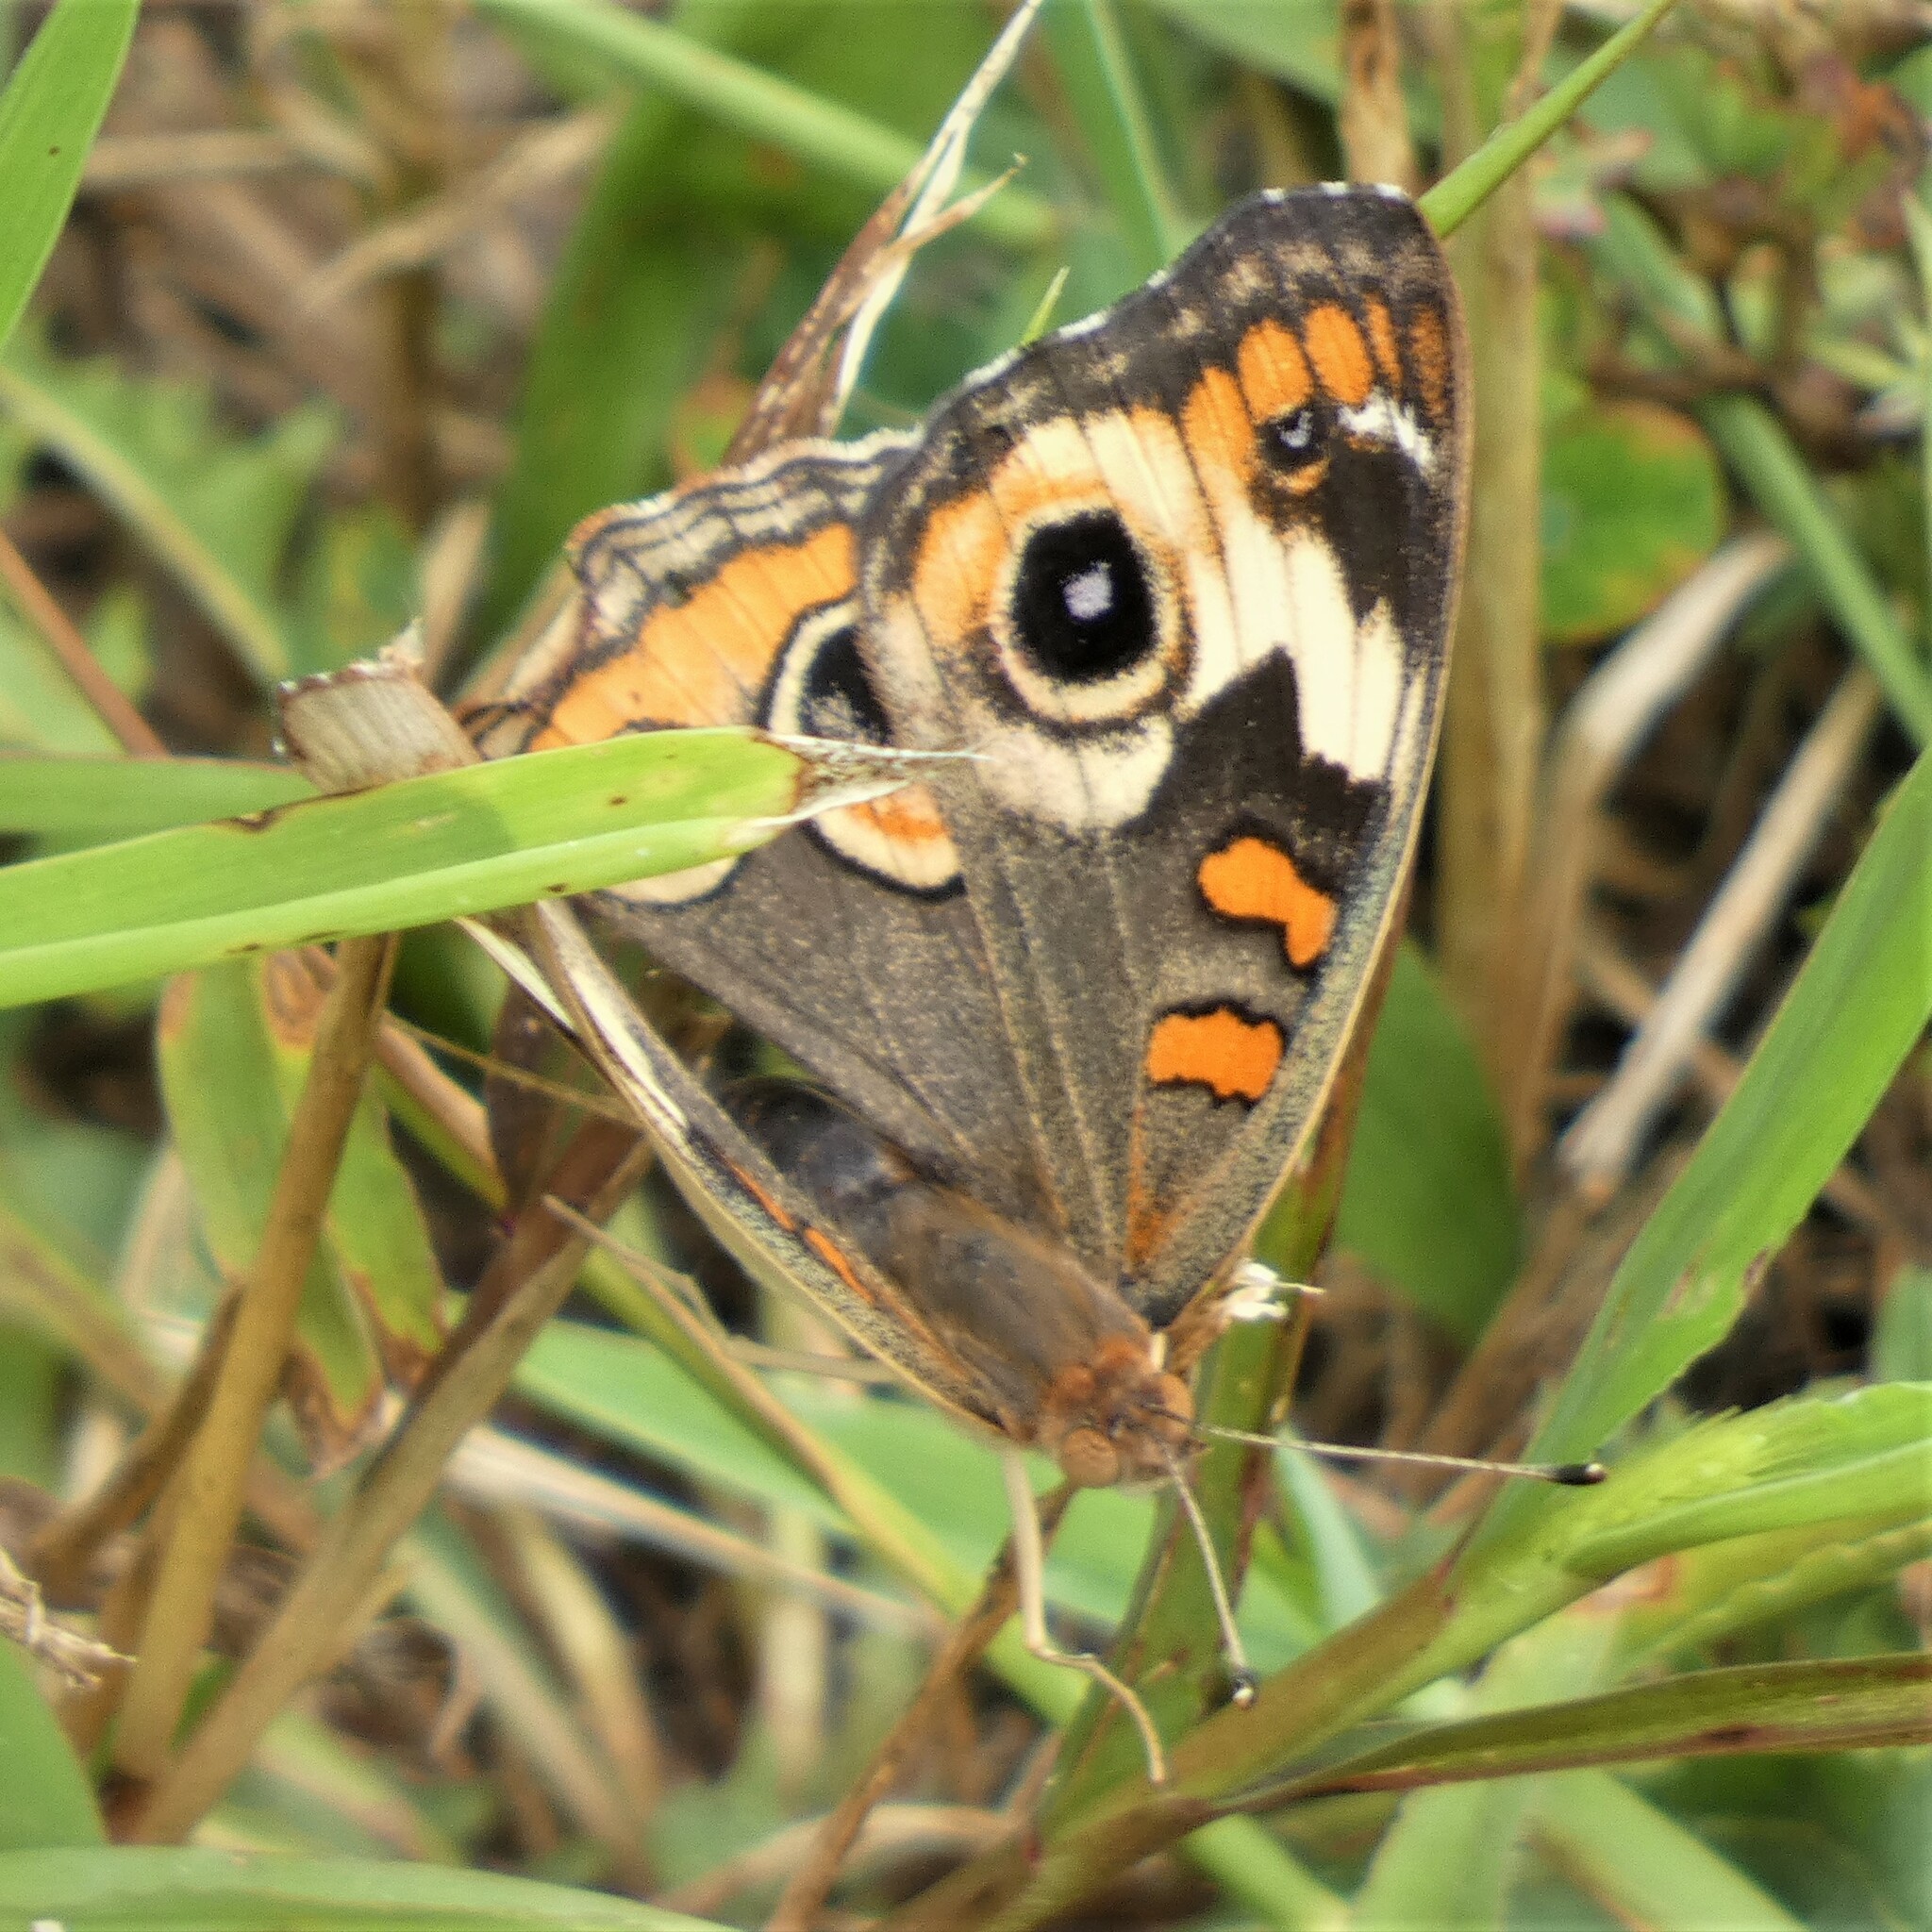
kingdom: Animalia
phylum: Arthropoda
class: Insecta
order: Lepidoptera
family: Nymphalidae
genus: Junonia
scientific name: Junonia coenia
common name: Common buckeye
